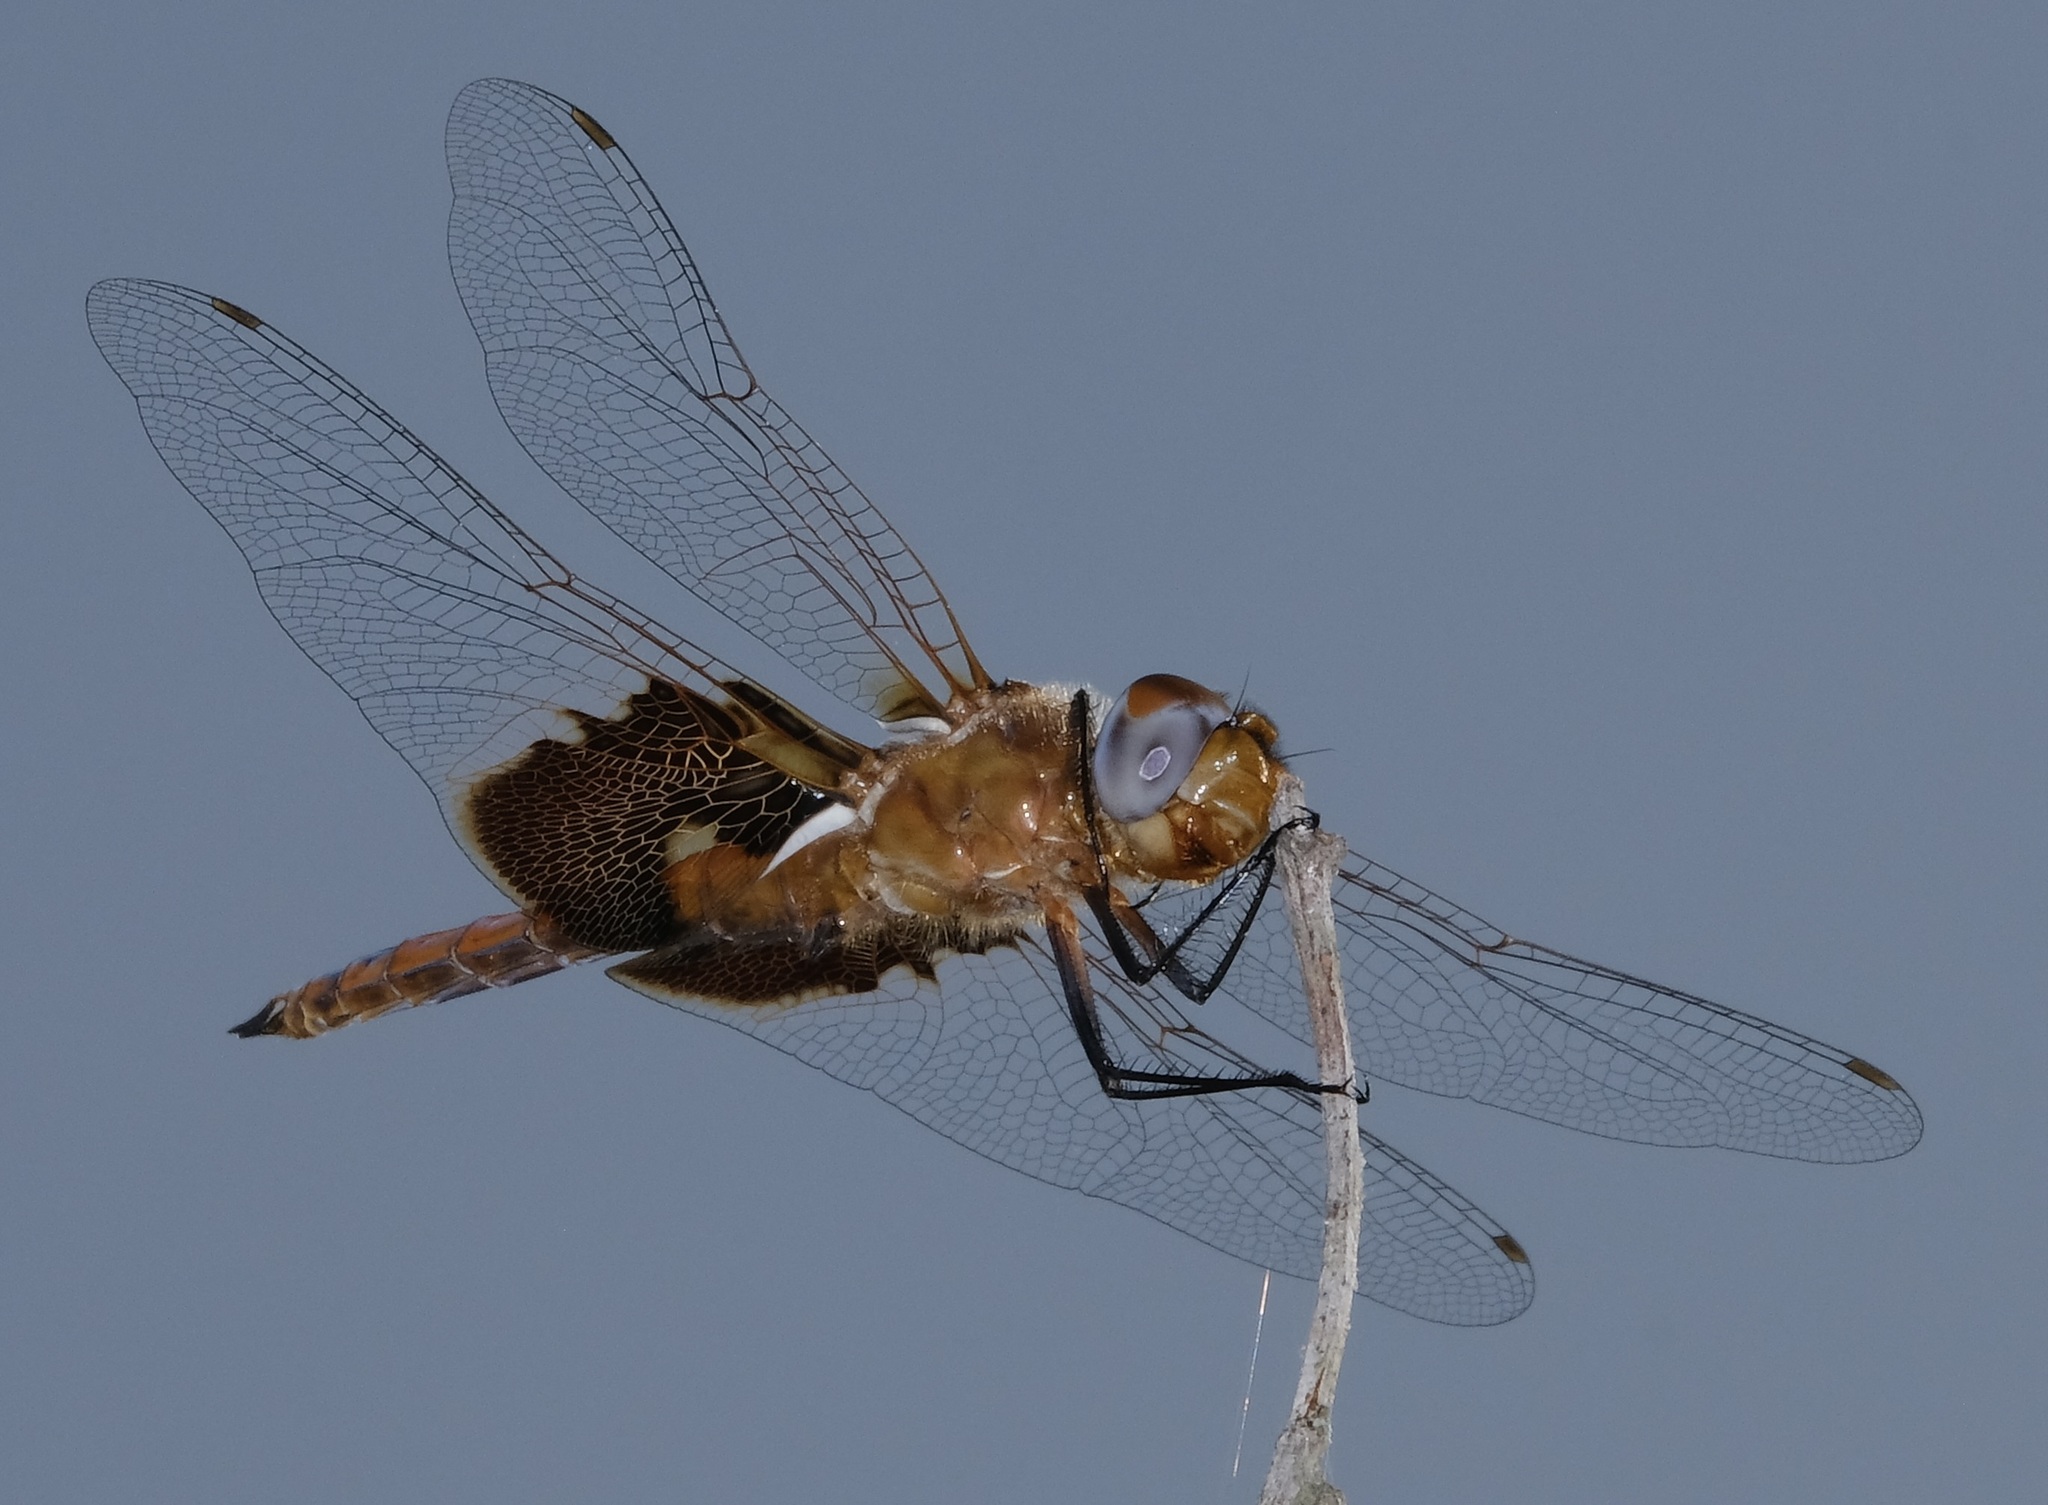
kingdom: Animalia
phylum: Arthropoda
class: Insecta
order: Odonata
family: Libellulidae
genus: Tramea
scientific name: Tramea onusta
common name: Red saddlebags
